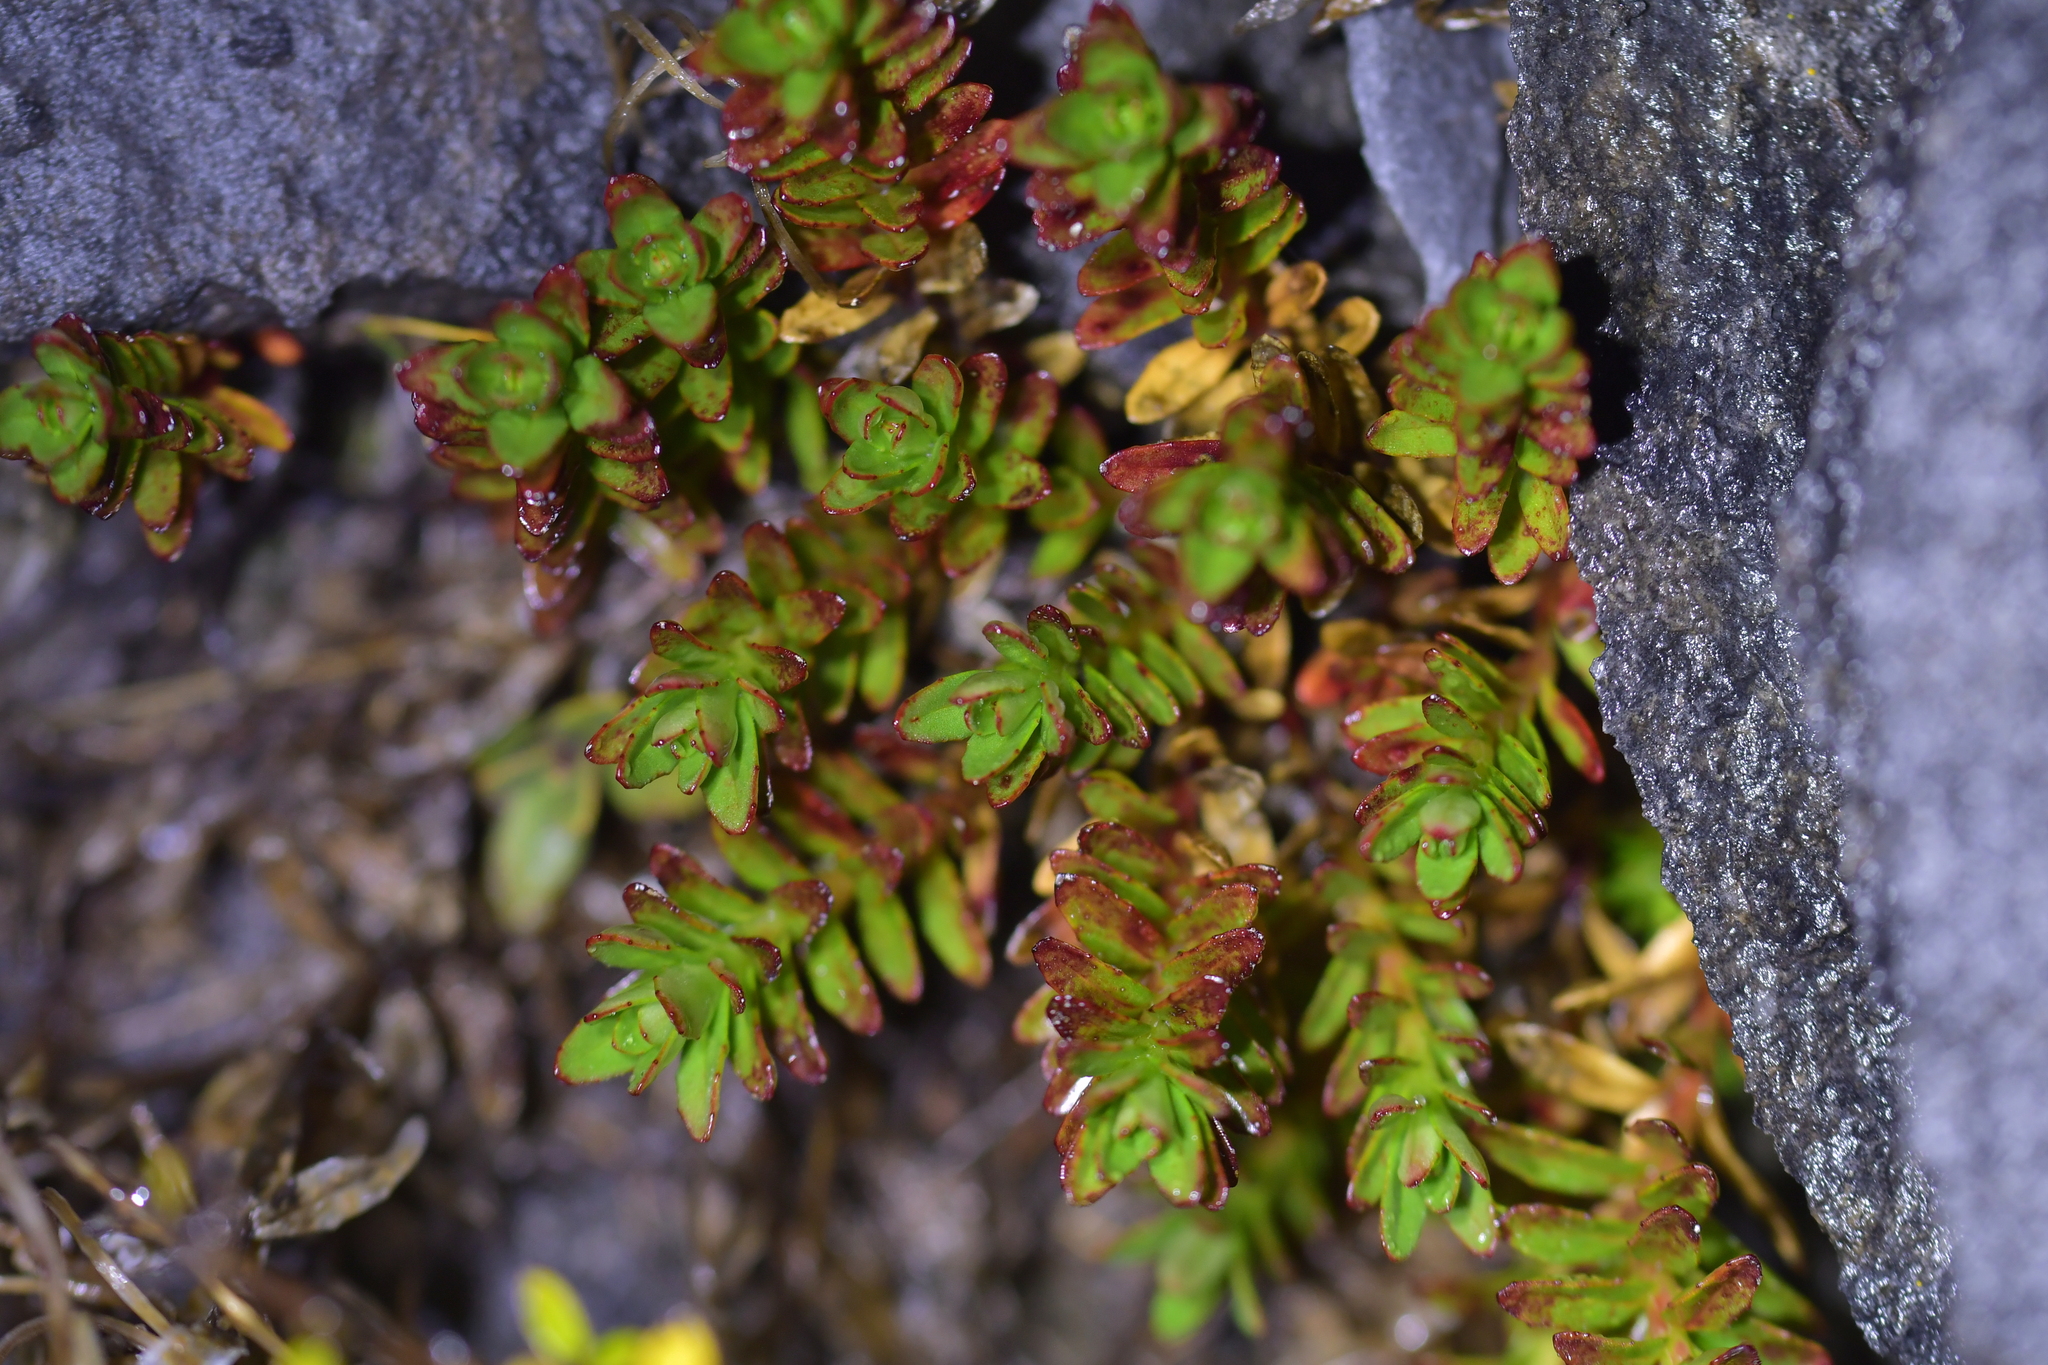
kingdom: Plantae
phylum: Tracheophyta
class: Magnoliopsida
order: Myrtales
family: Onagraceae
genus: Epilobium
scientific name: Epilobium glabellum
